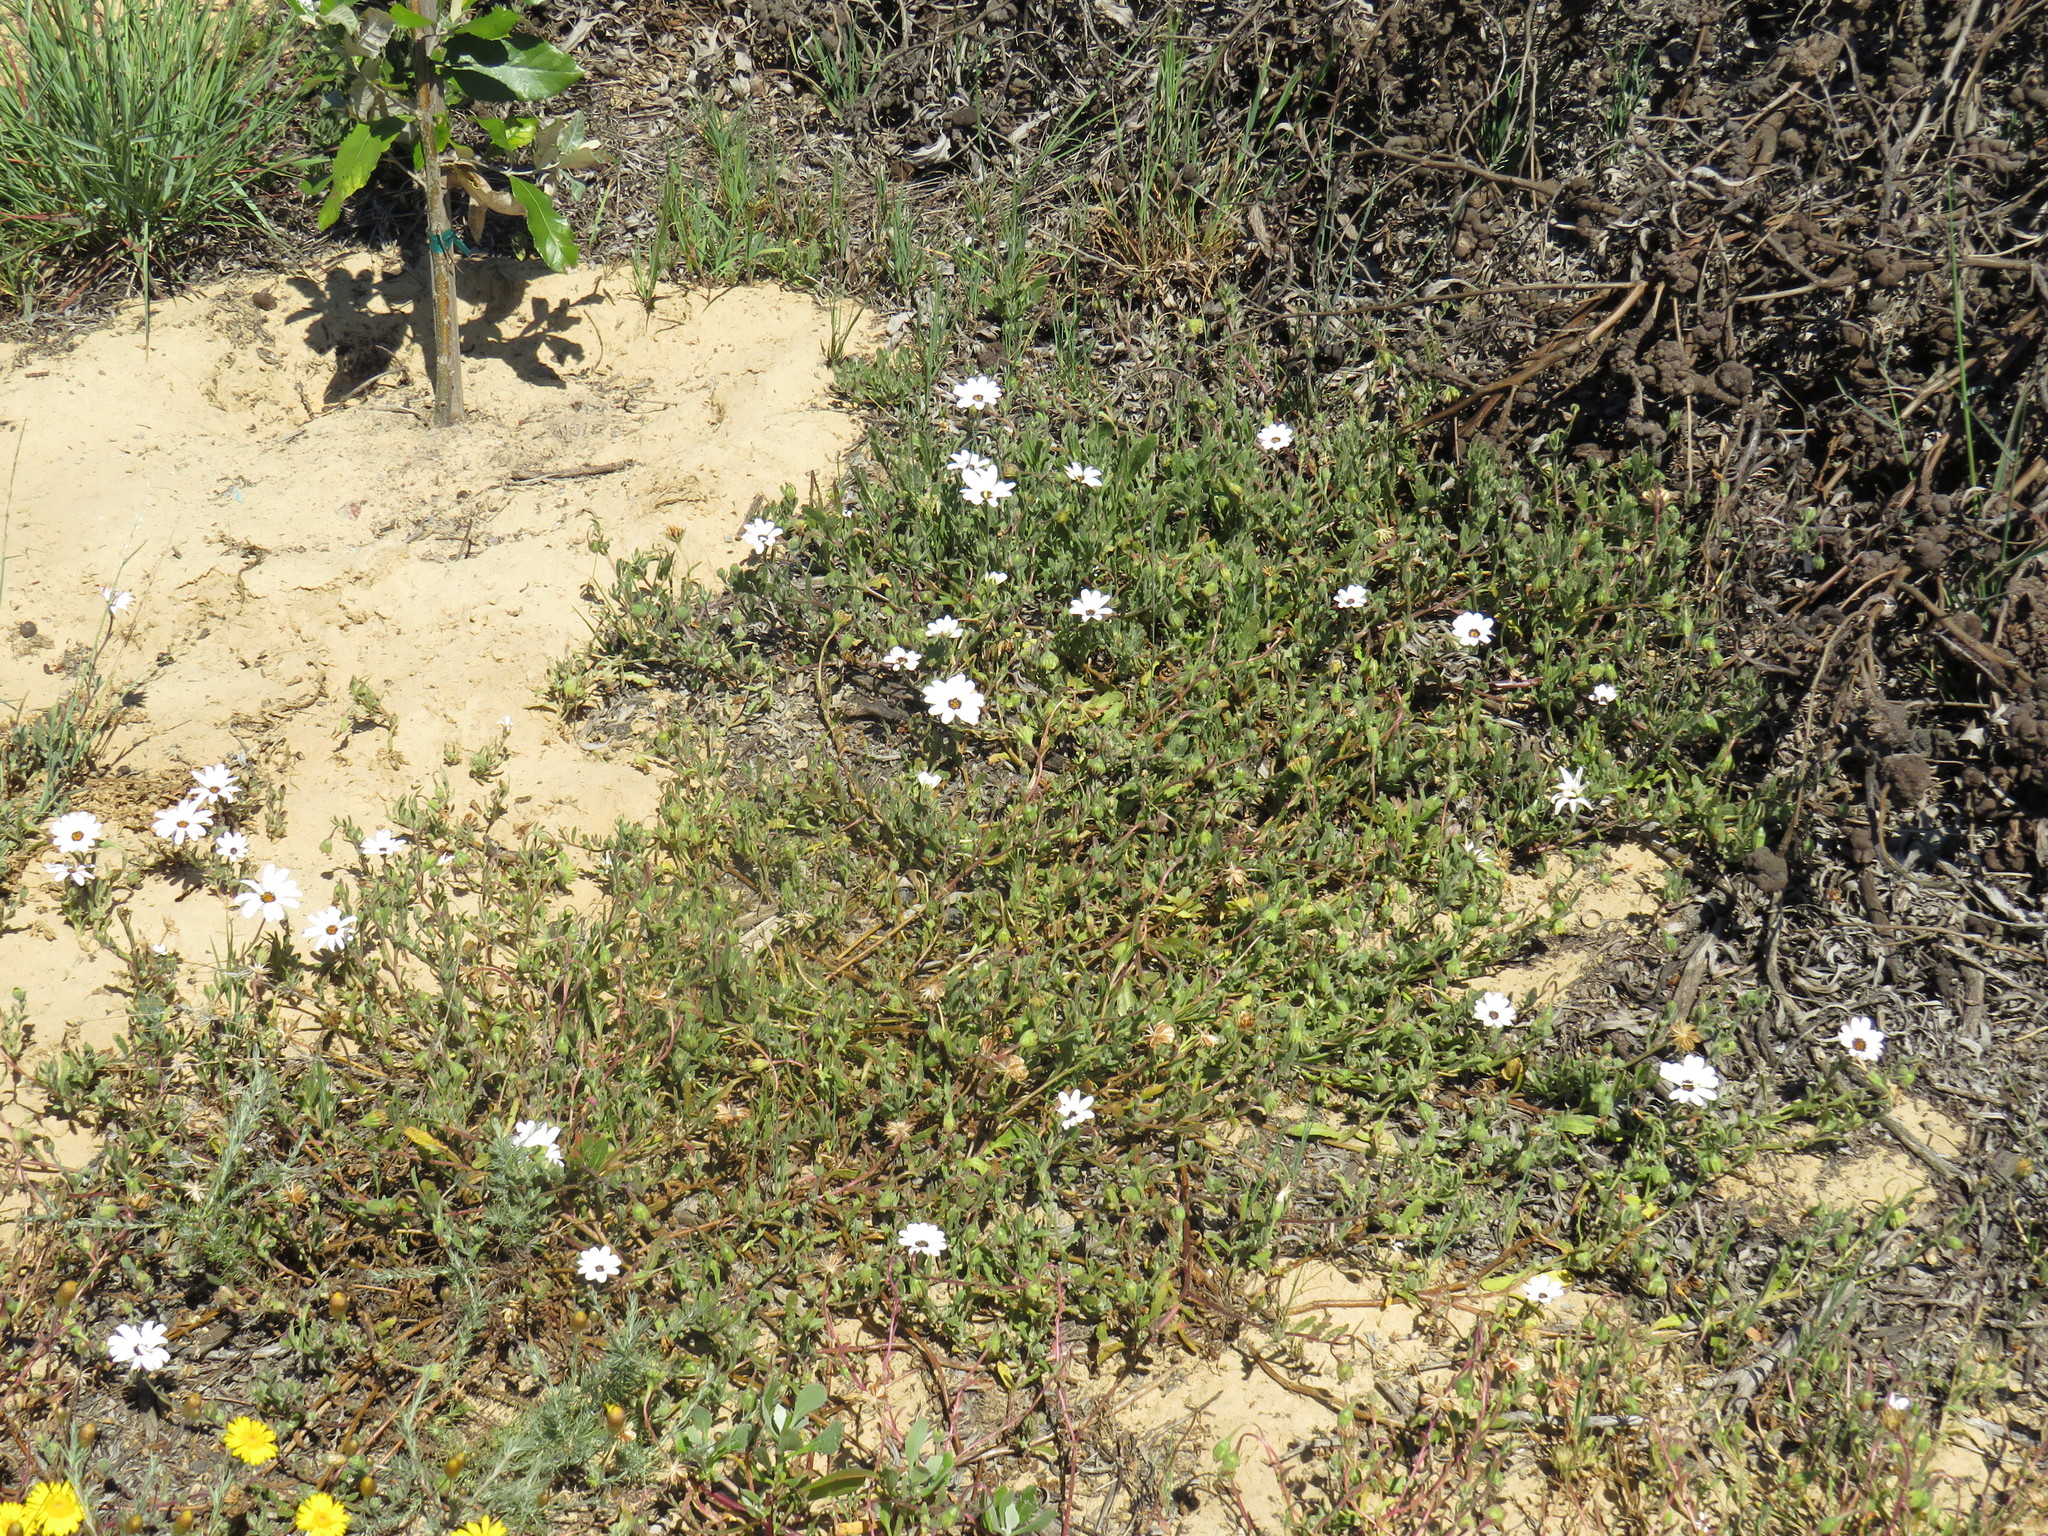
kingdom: Plantae
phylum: Tracheophyta
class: Magnoliopsida
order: Asterales
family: Asteraceae
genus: Dimorphotheca
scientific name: Dimorphotheca pluvialis
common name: Weather prophet
